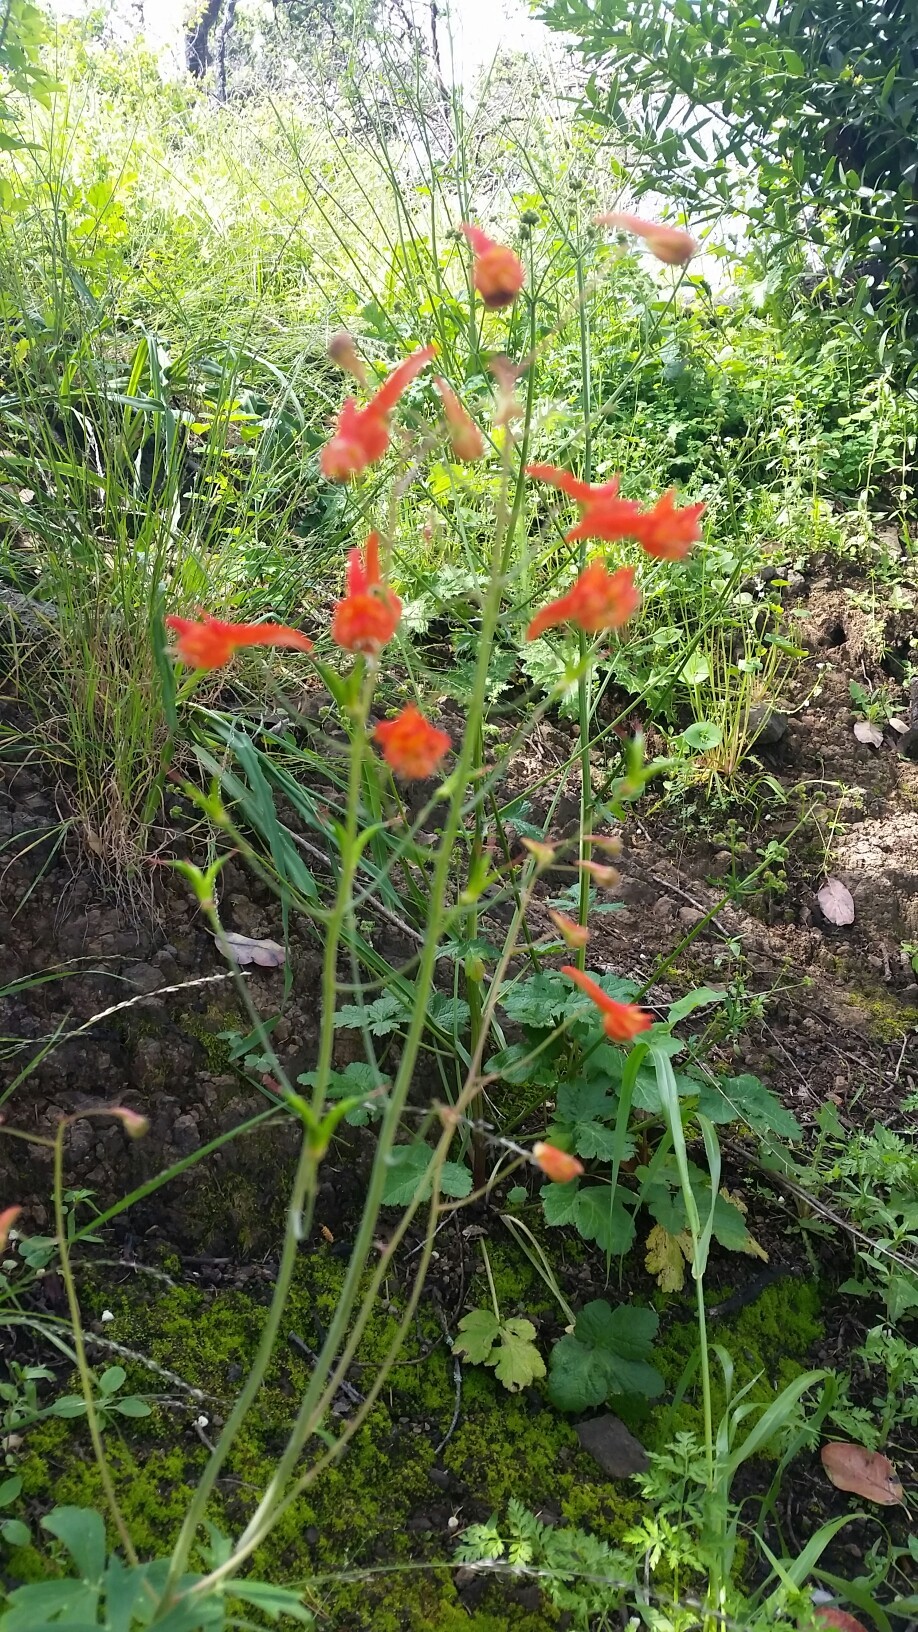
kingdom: Plantae
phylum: Tracheophyta
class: Magnoliopsida
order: Ranunculales
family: Ranunculaceae
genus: Delphinium
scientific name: Delphinium nudicaule
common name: Red larkspur
